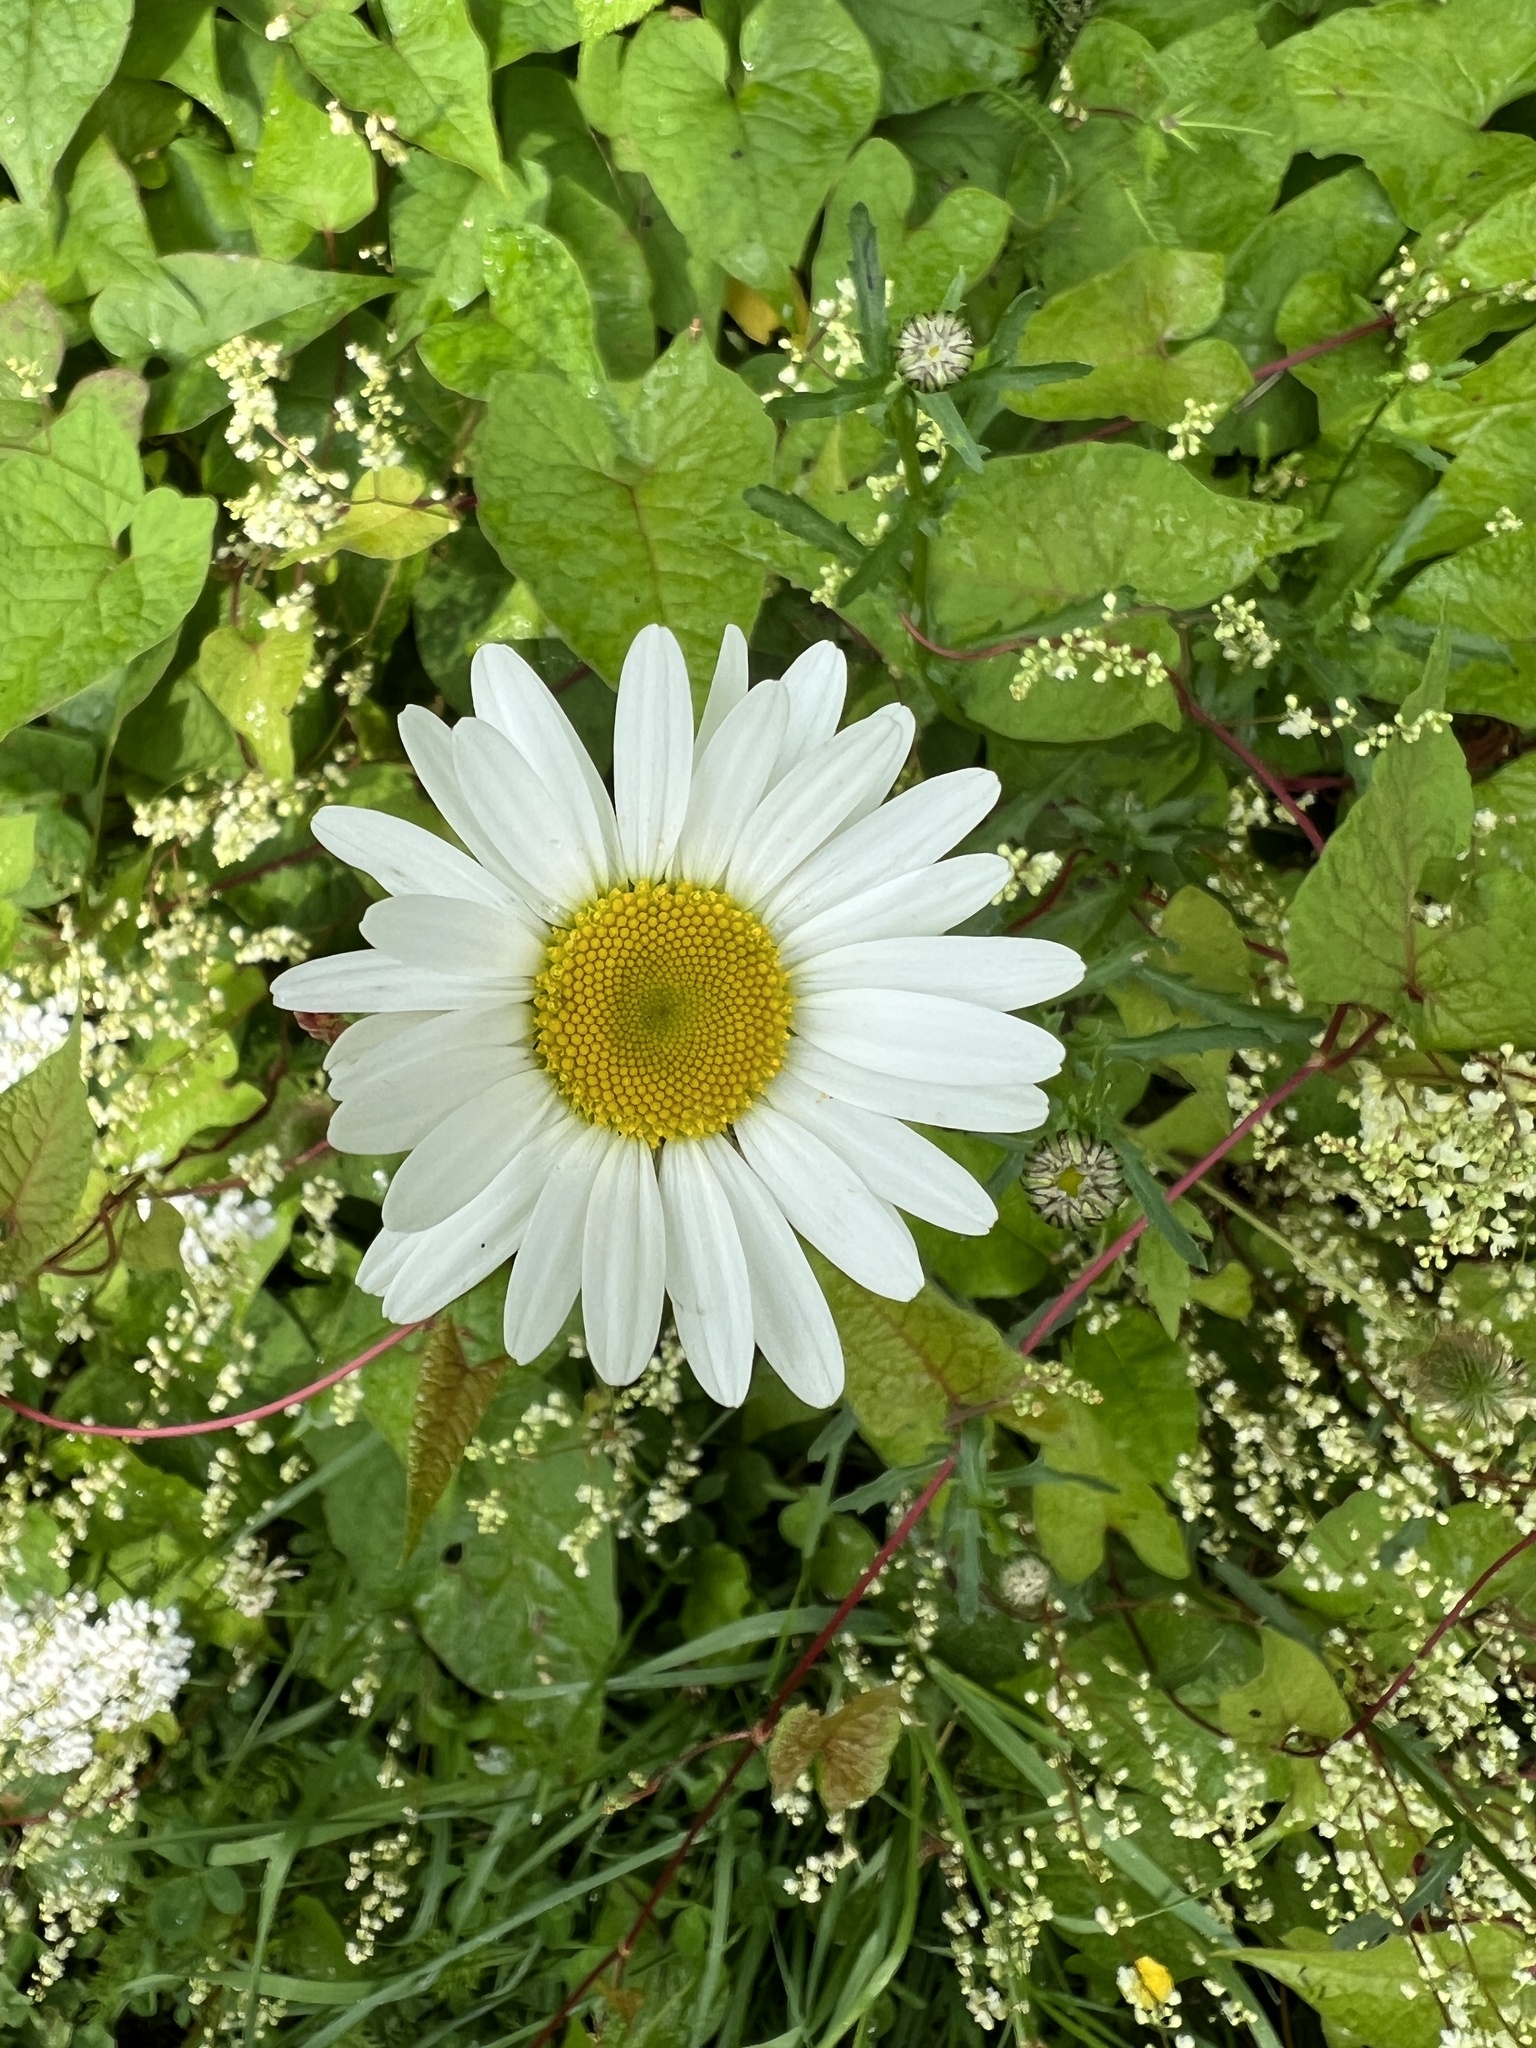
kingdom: Plantae
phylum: Tracheophyta
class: Magnoliopsida
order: Asterales
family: Asteraceae
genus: Leucanthemum
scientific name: Leucanthemum vulgare
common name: Oxeye daisy
